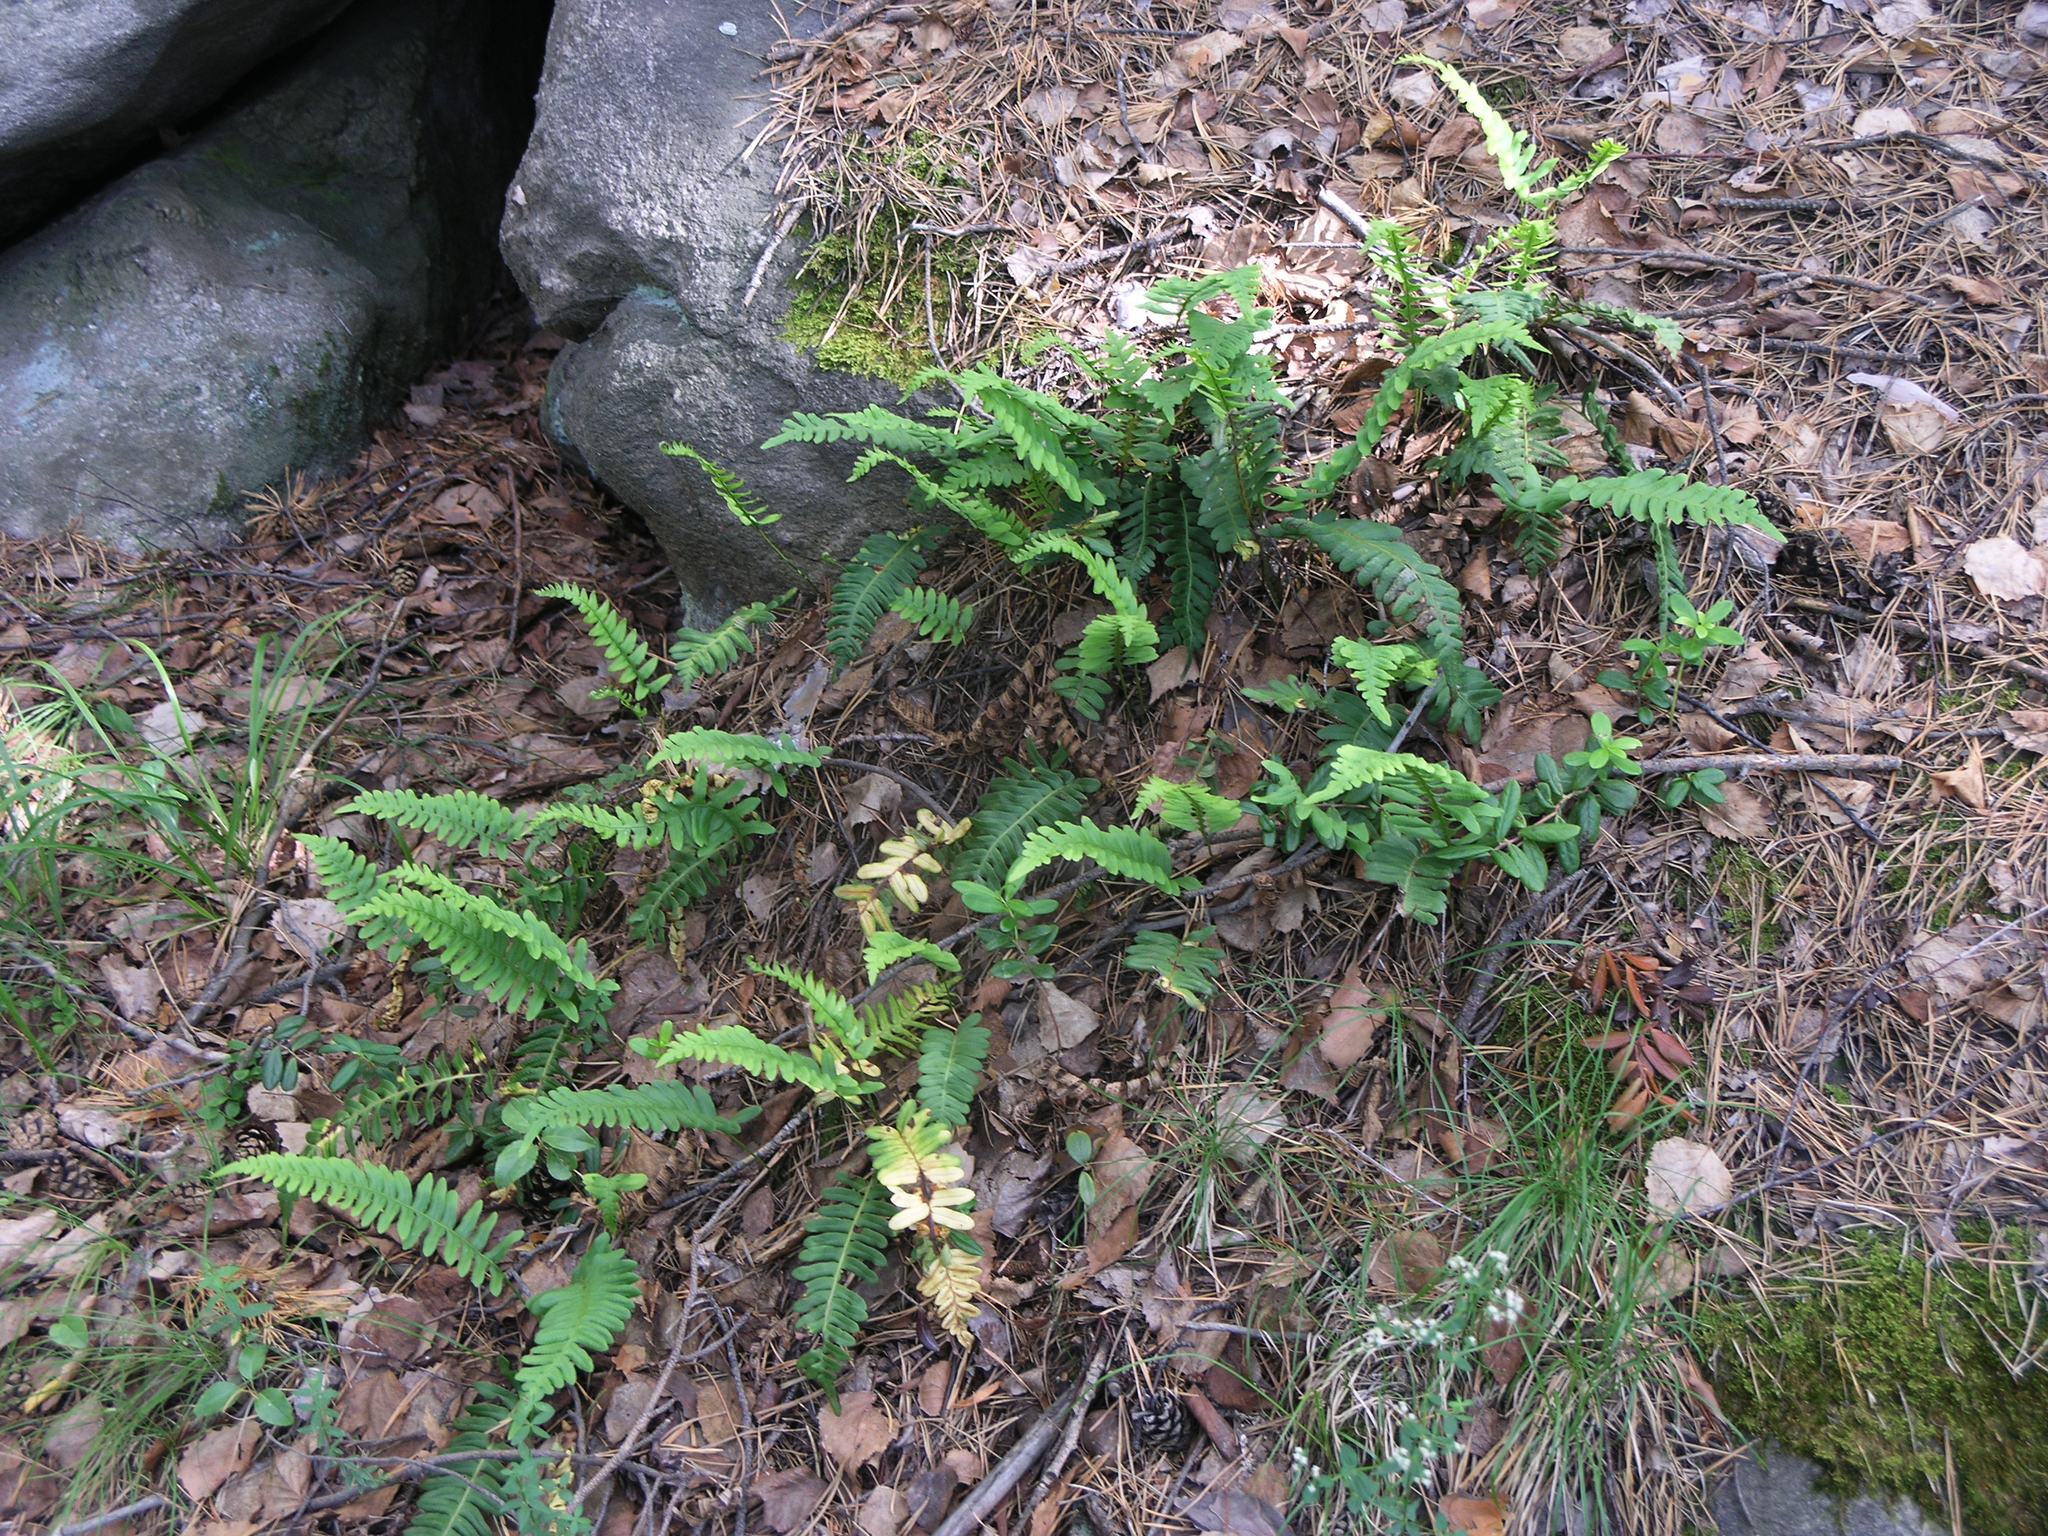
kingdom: Plantae
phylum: Tracheophyta
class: Polypodiopsida
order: Polypodiales
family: Polypodiaceae
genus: Polypodium
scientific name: Polypodium vulgare
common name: Common polypody
